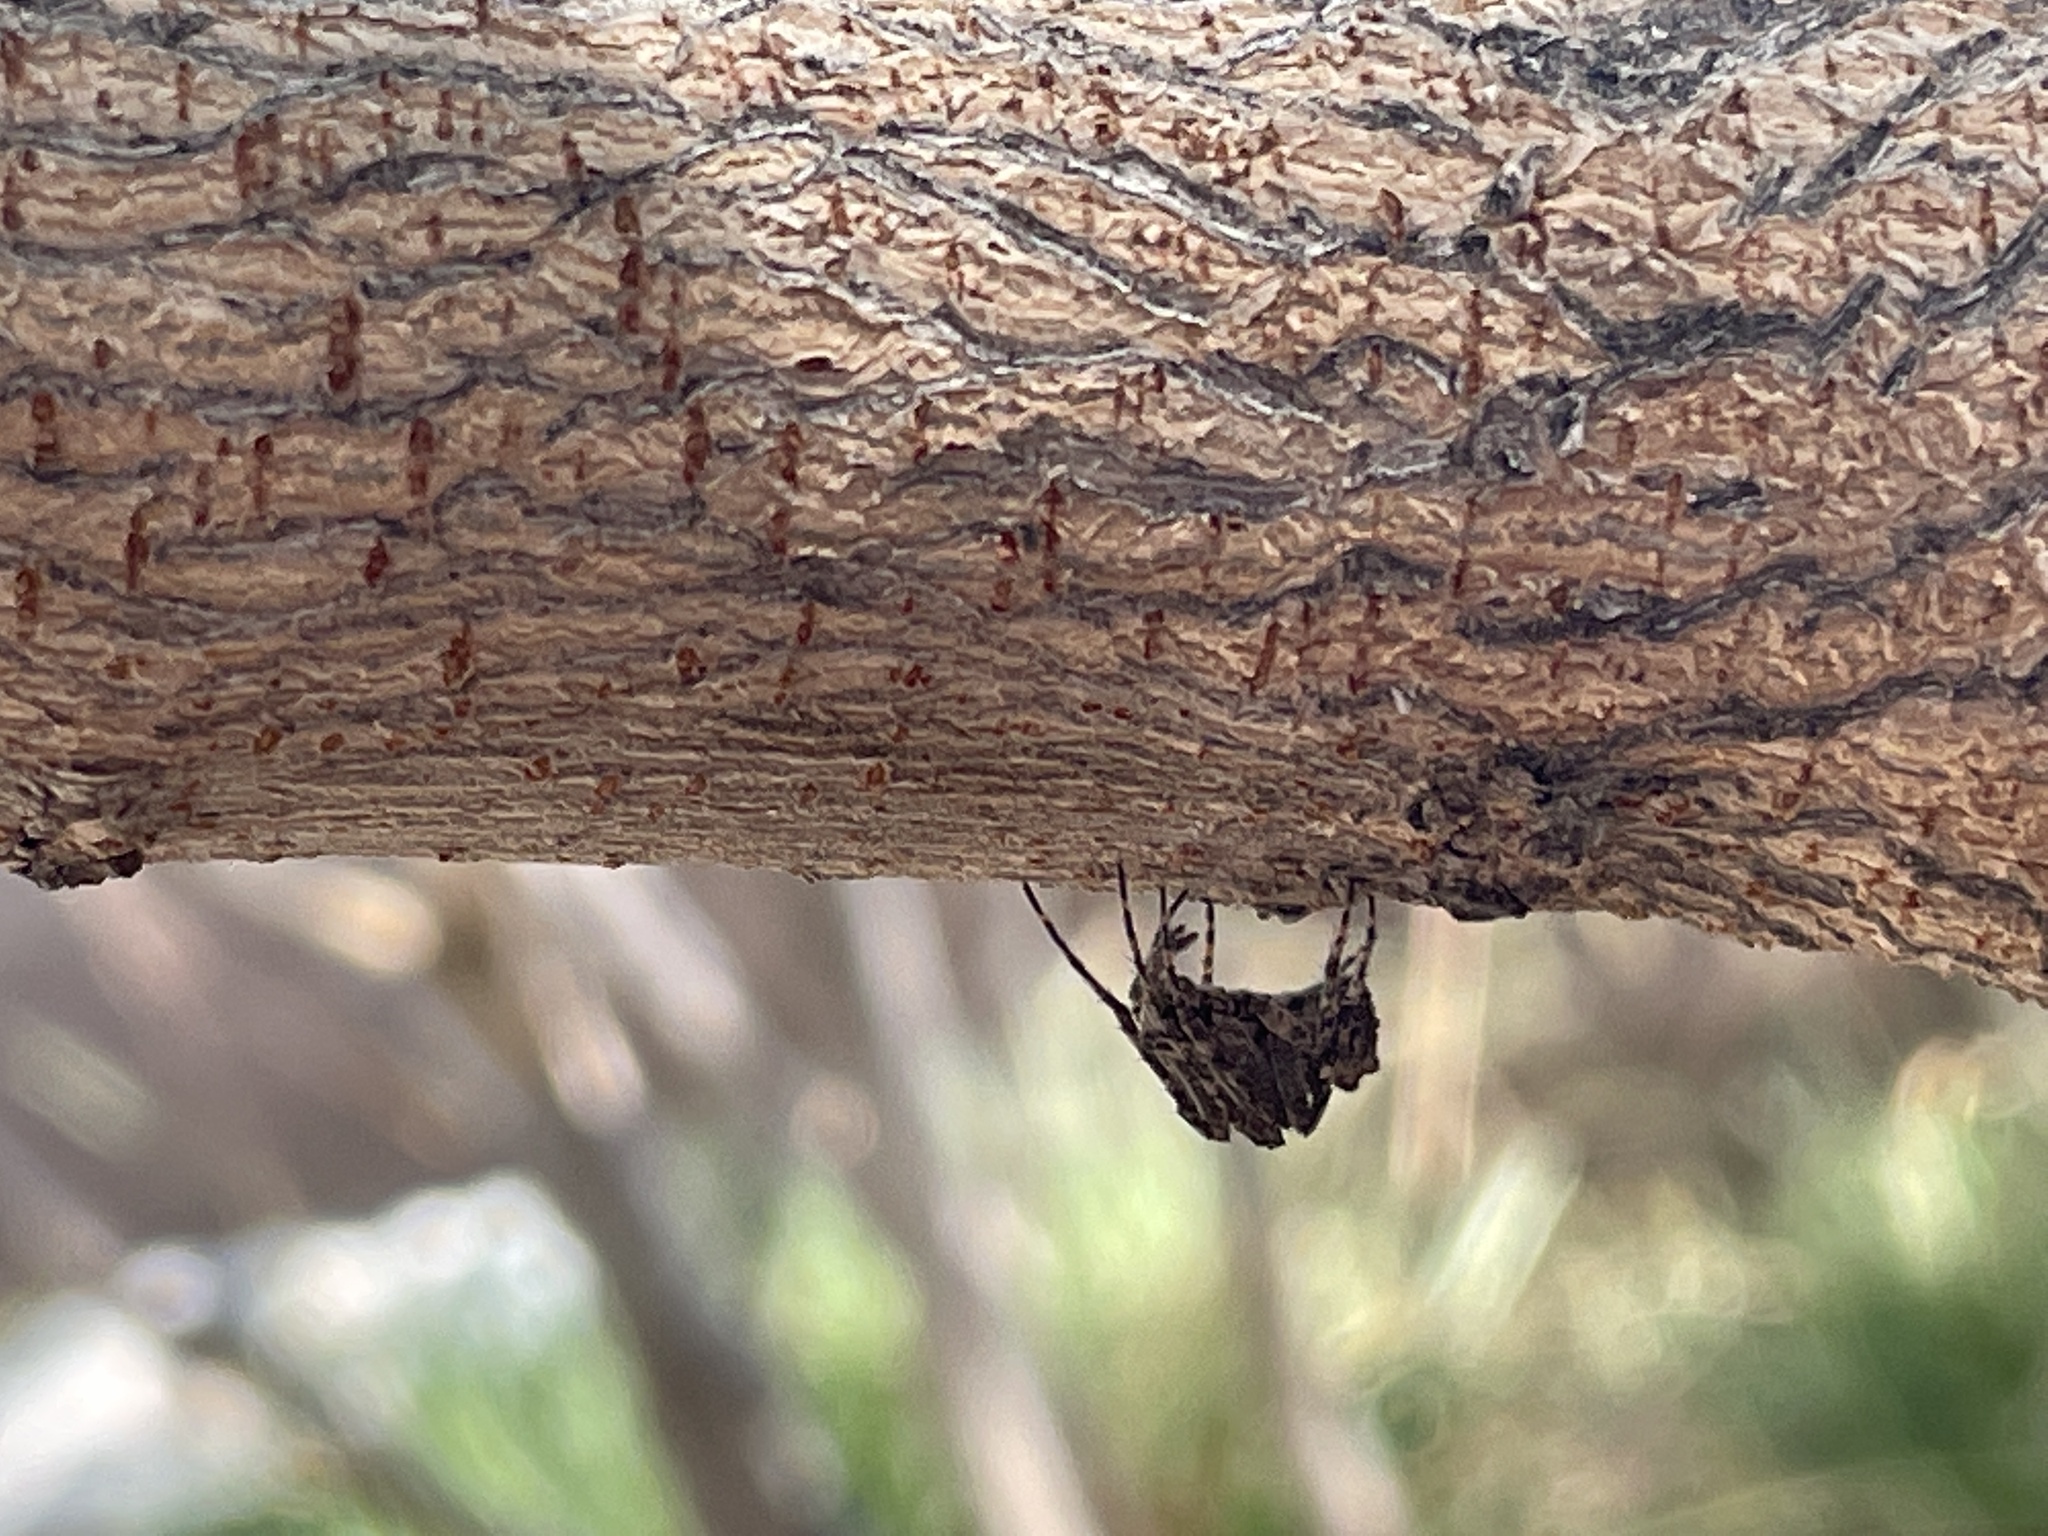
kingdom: Animalia
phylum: Arthropoda
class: Arachnida
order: Araneae
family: Araneidae
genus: Eustala
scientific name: Eustala rosae
